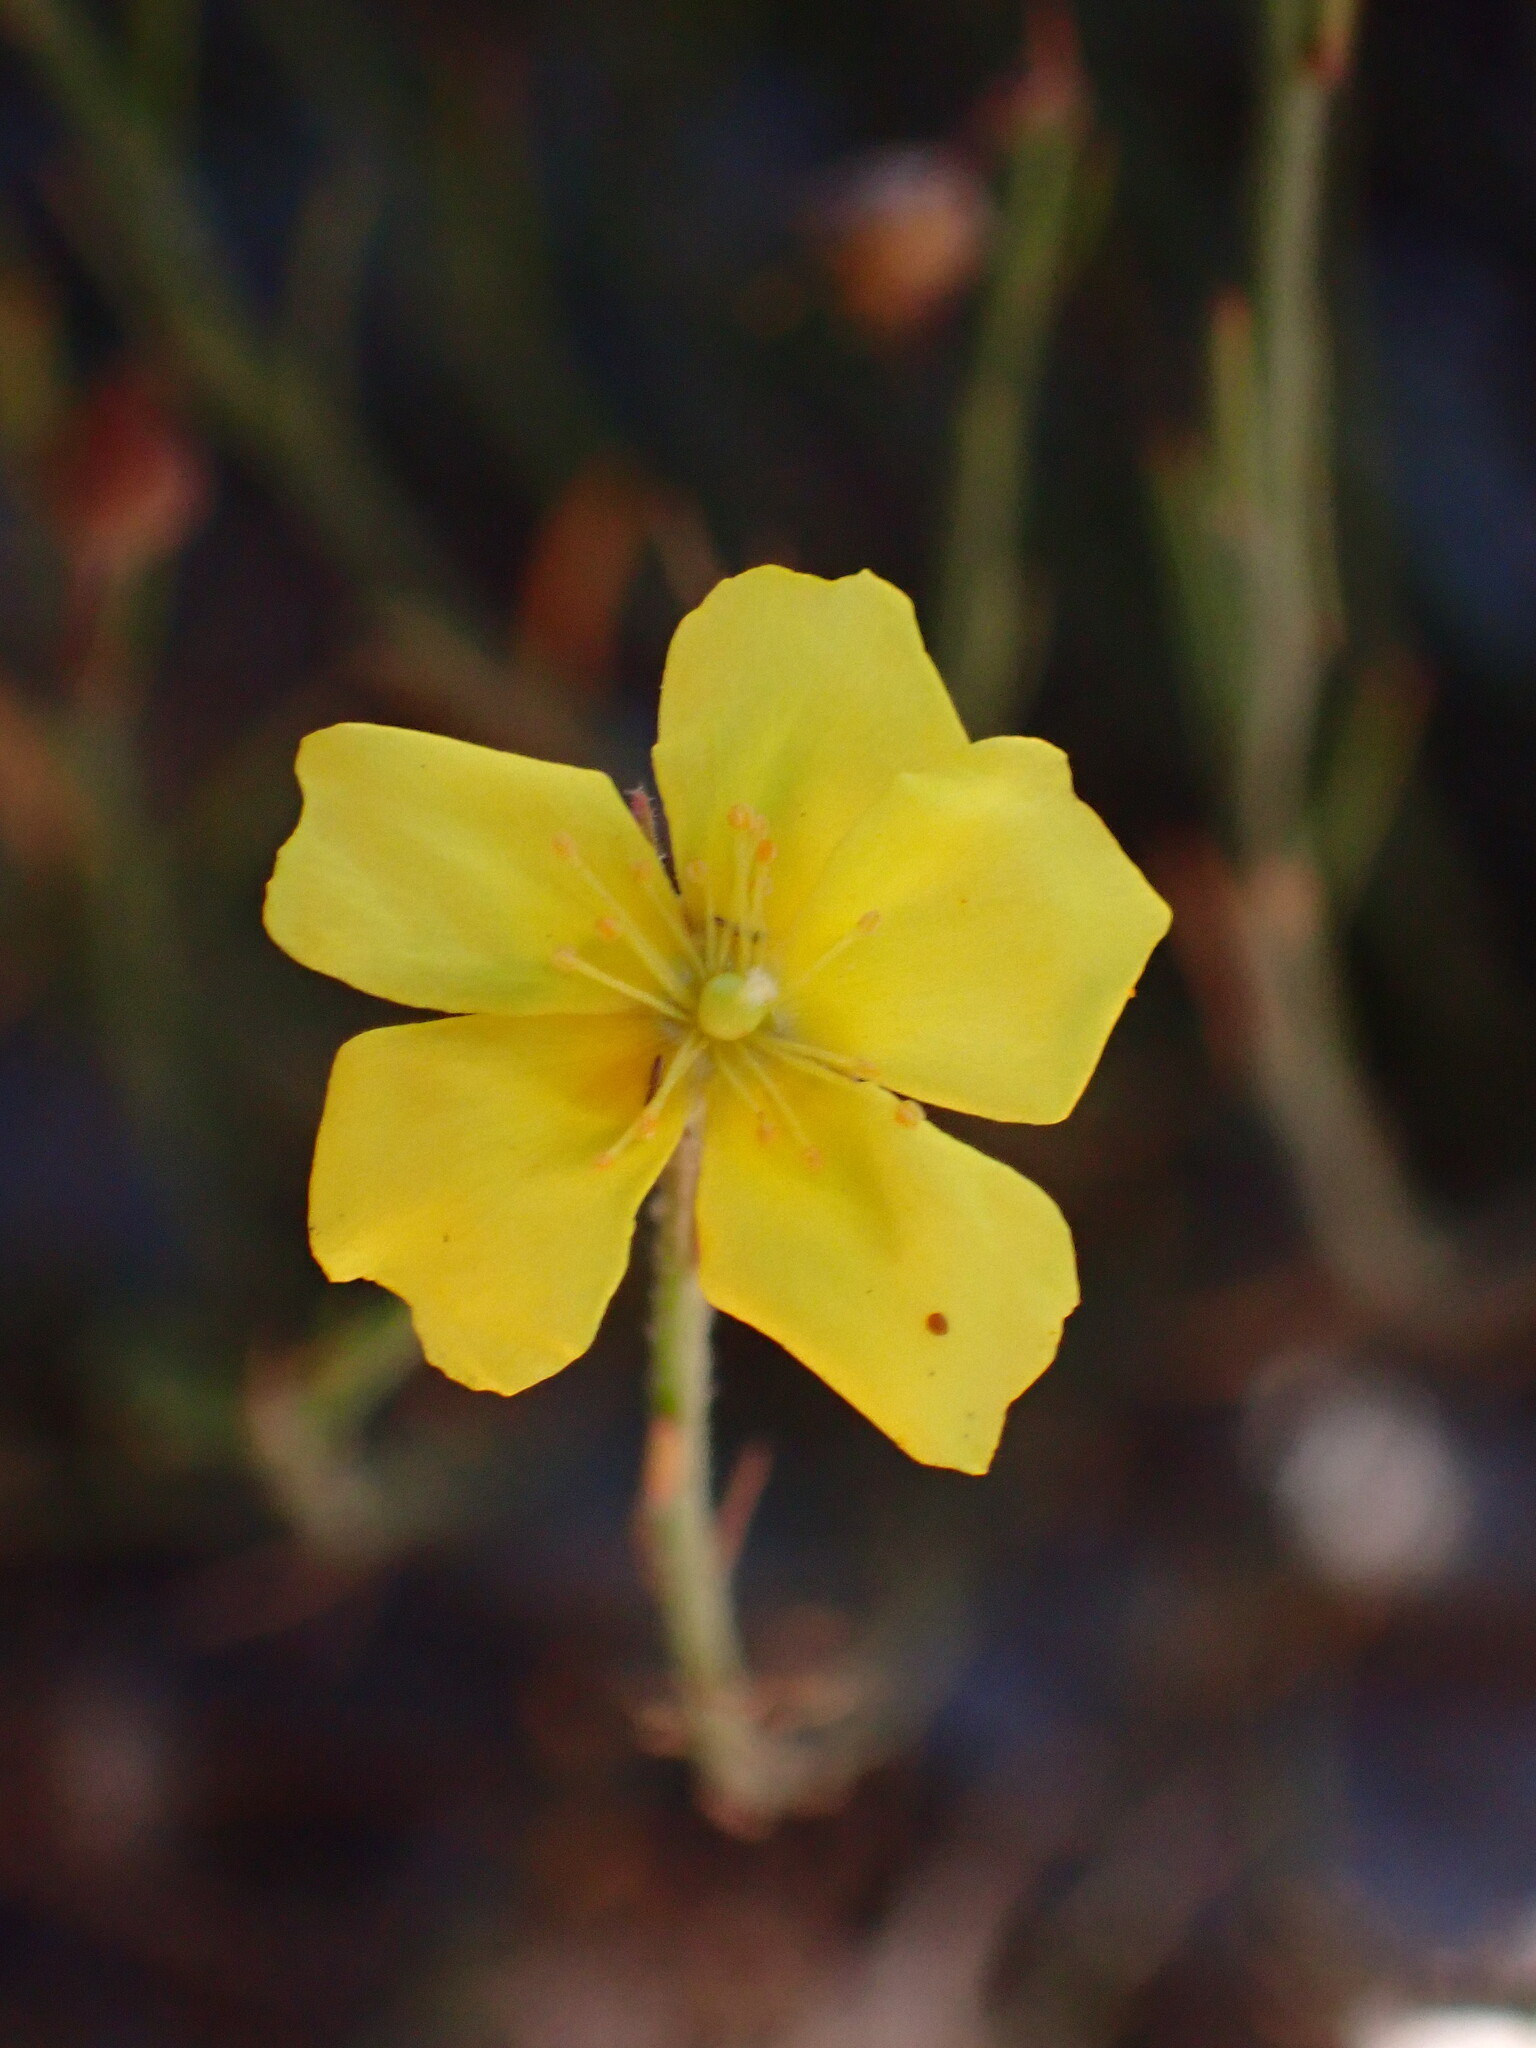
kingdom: Plantae
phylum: Tracheophyta
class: Magnoliopsida
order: Malvales
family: Cistaceae
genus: Crocanthemum
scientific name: Crocanthemum scoparium
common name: Broom-rose
